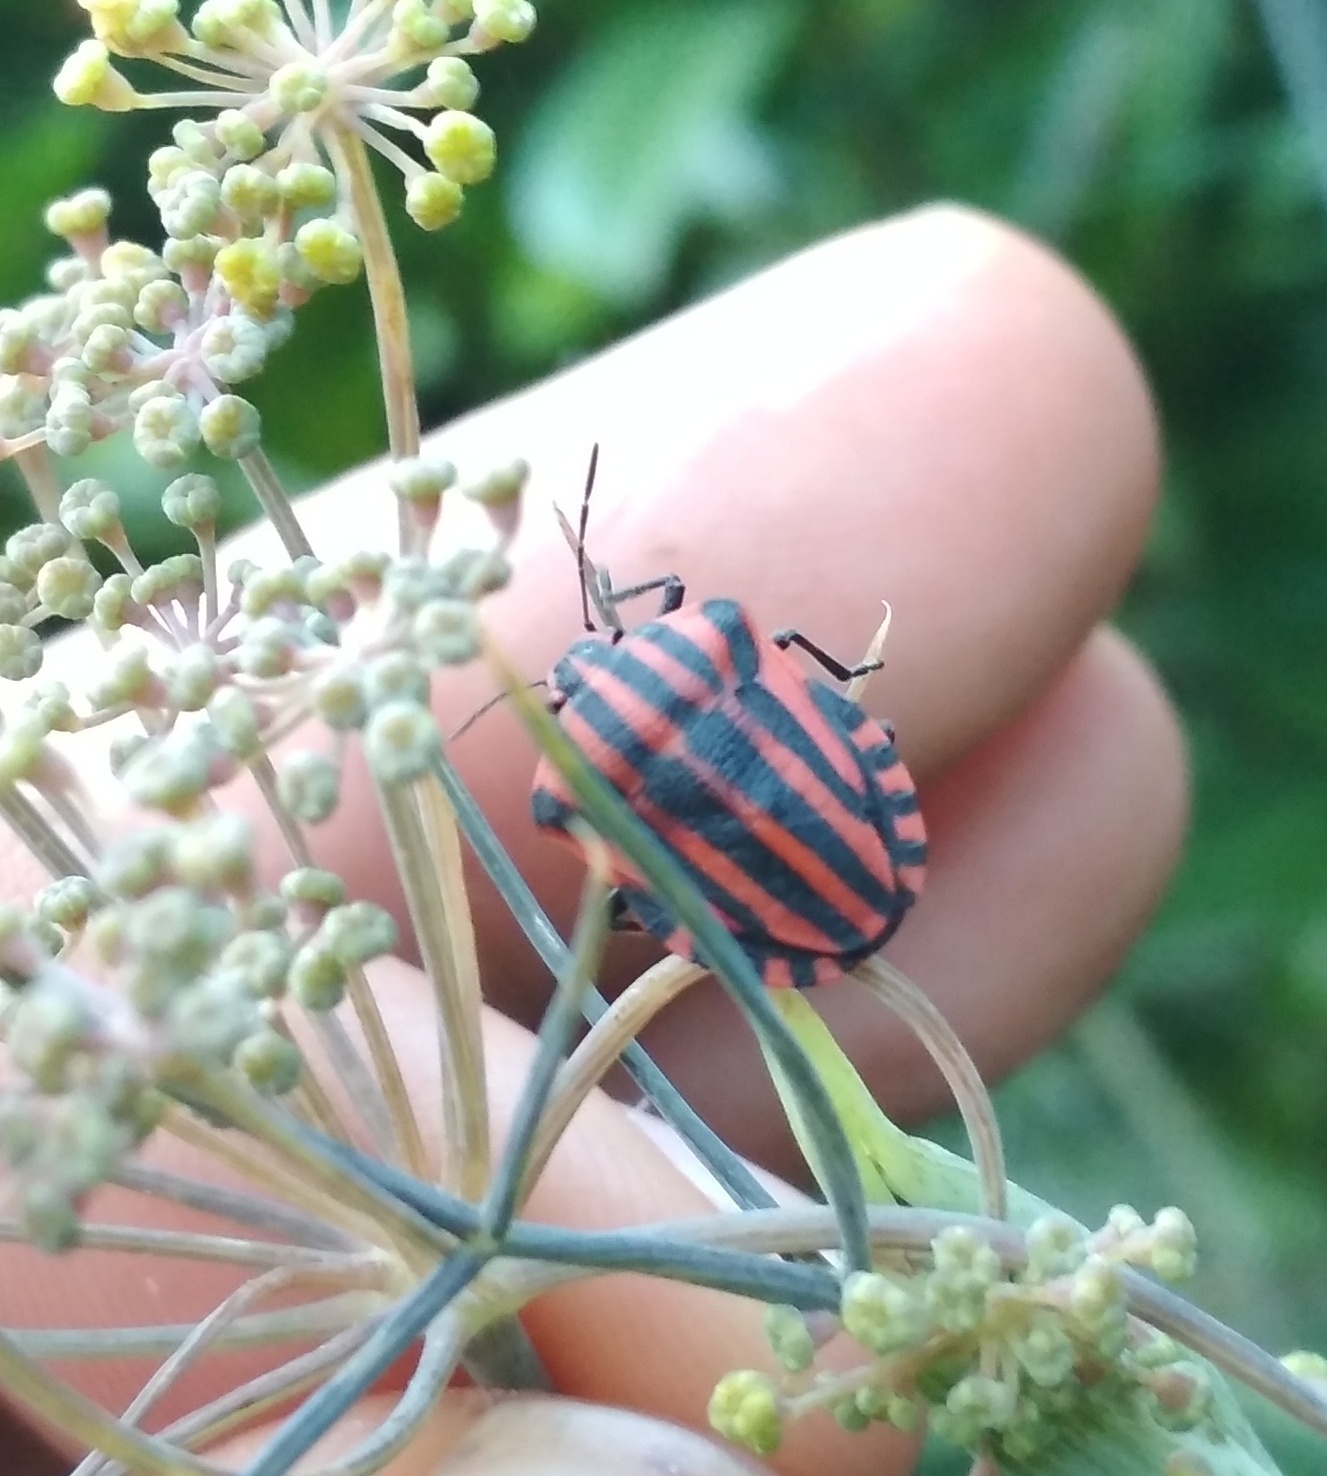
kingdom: Animalia
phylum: Arthropoda
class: Insecta
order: Hemiptera
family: Pentatomidae
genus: Graphosoma
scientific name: Graphosoma italicum
